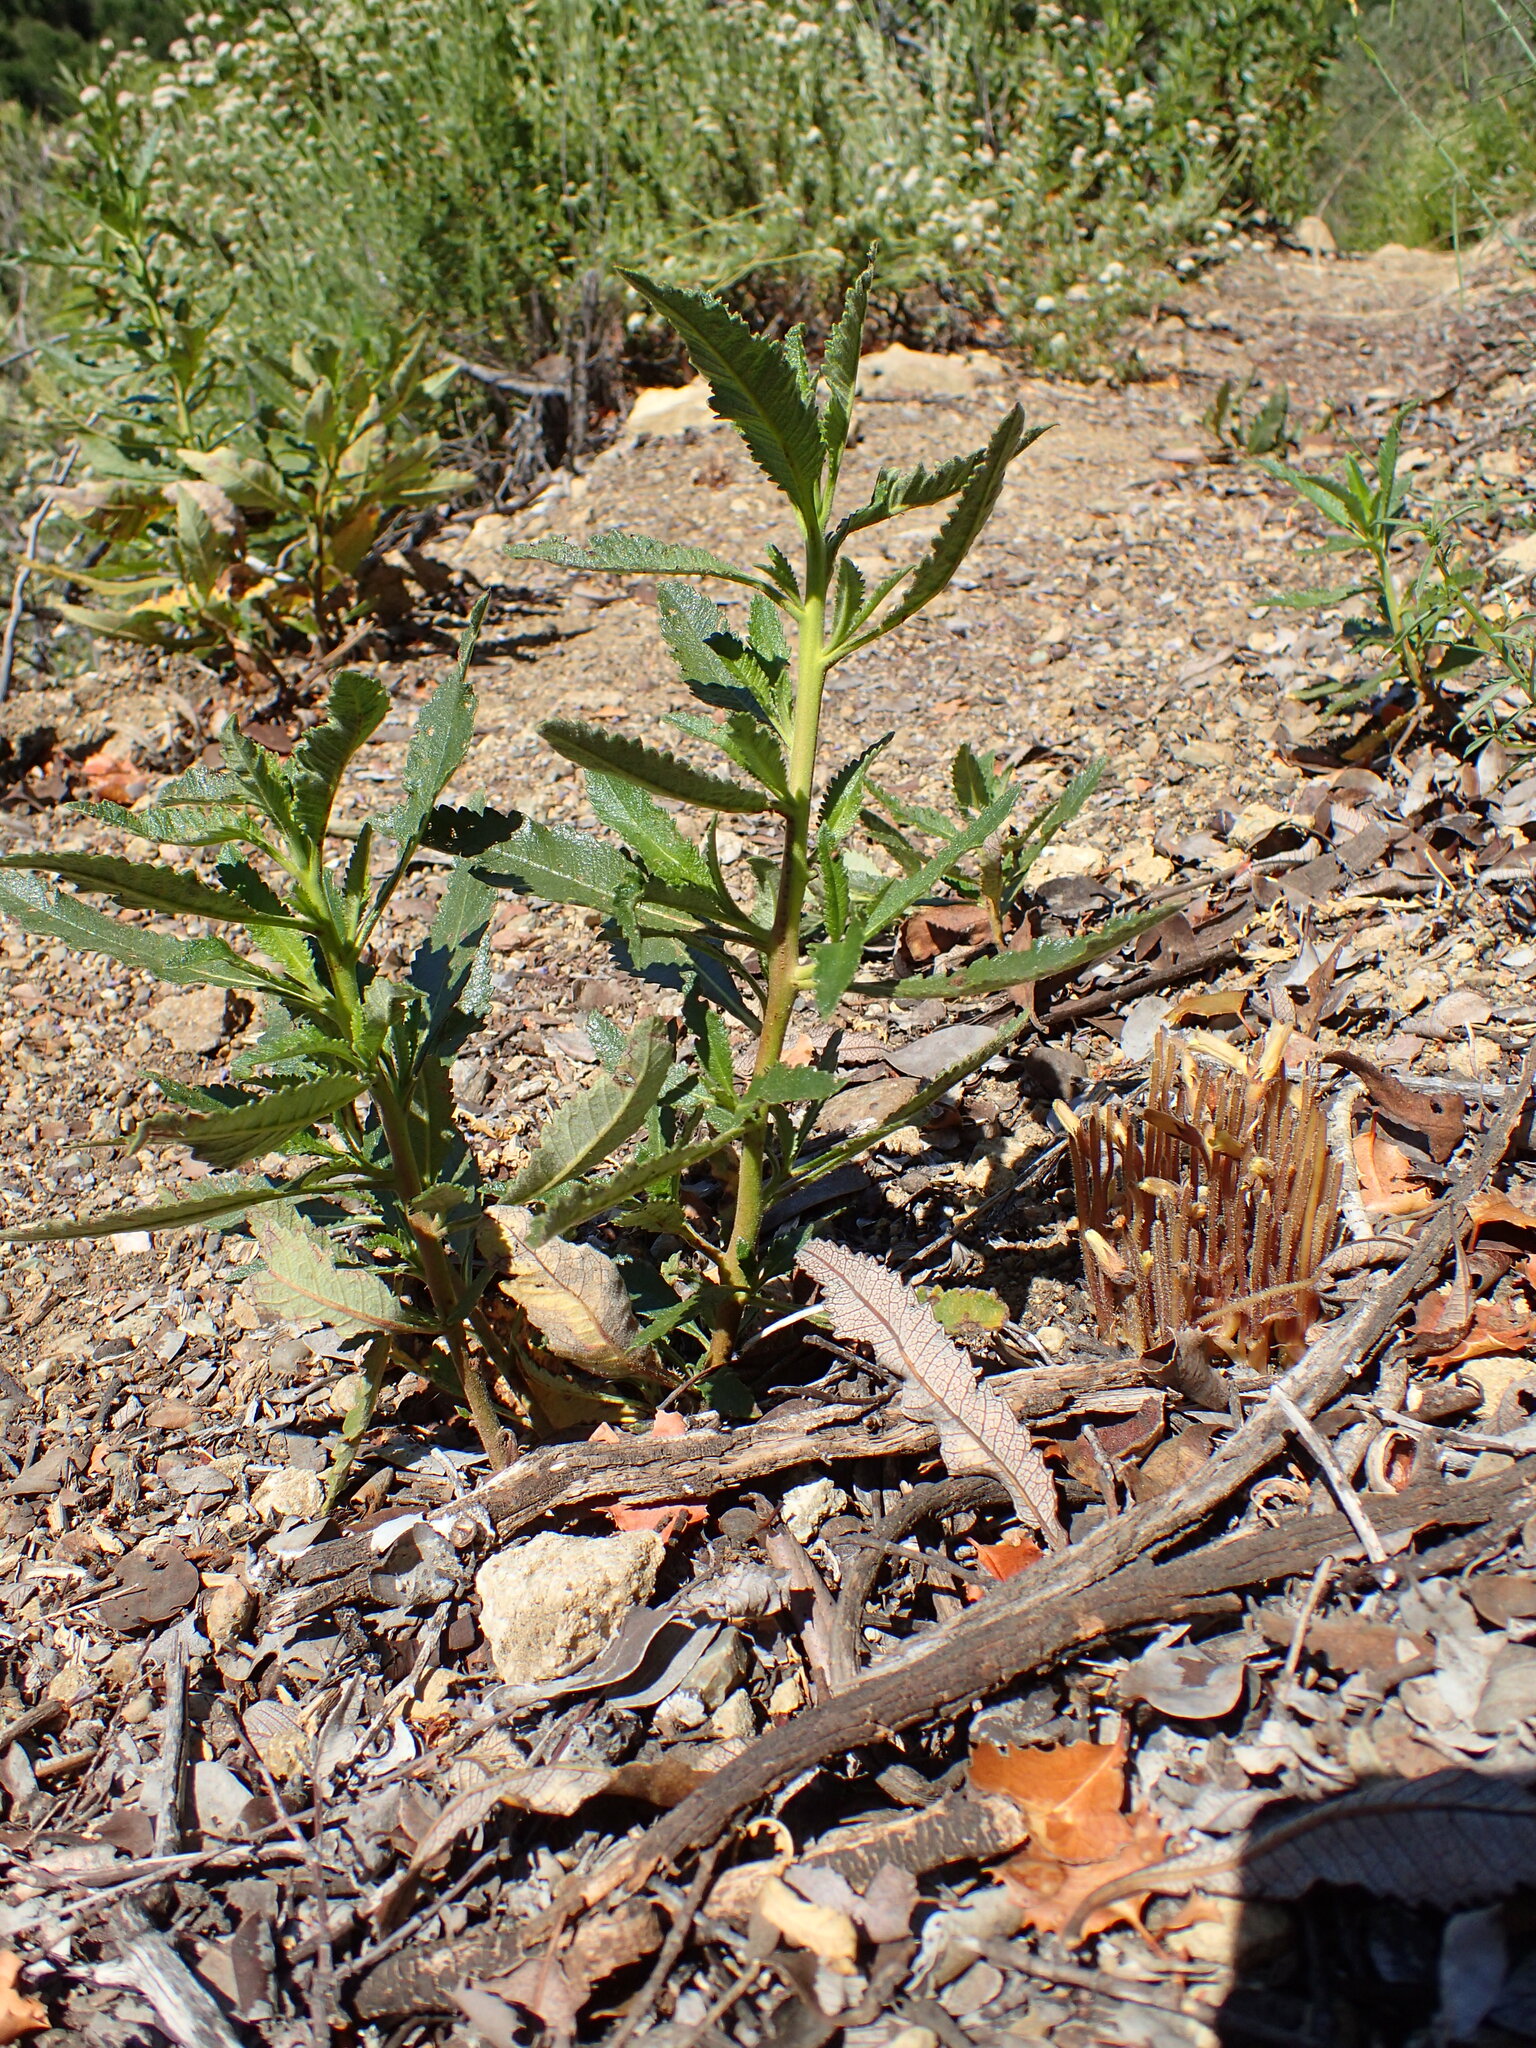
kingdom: Plantae
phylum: Tracheophyta
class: Magnoliopsida
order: Lamiales
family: Orobanchaceae
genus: Aphyllon
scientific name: Aphyllon franciscanum
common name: San francisco broomrape
